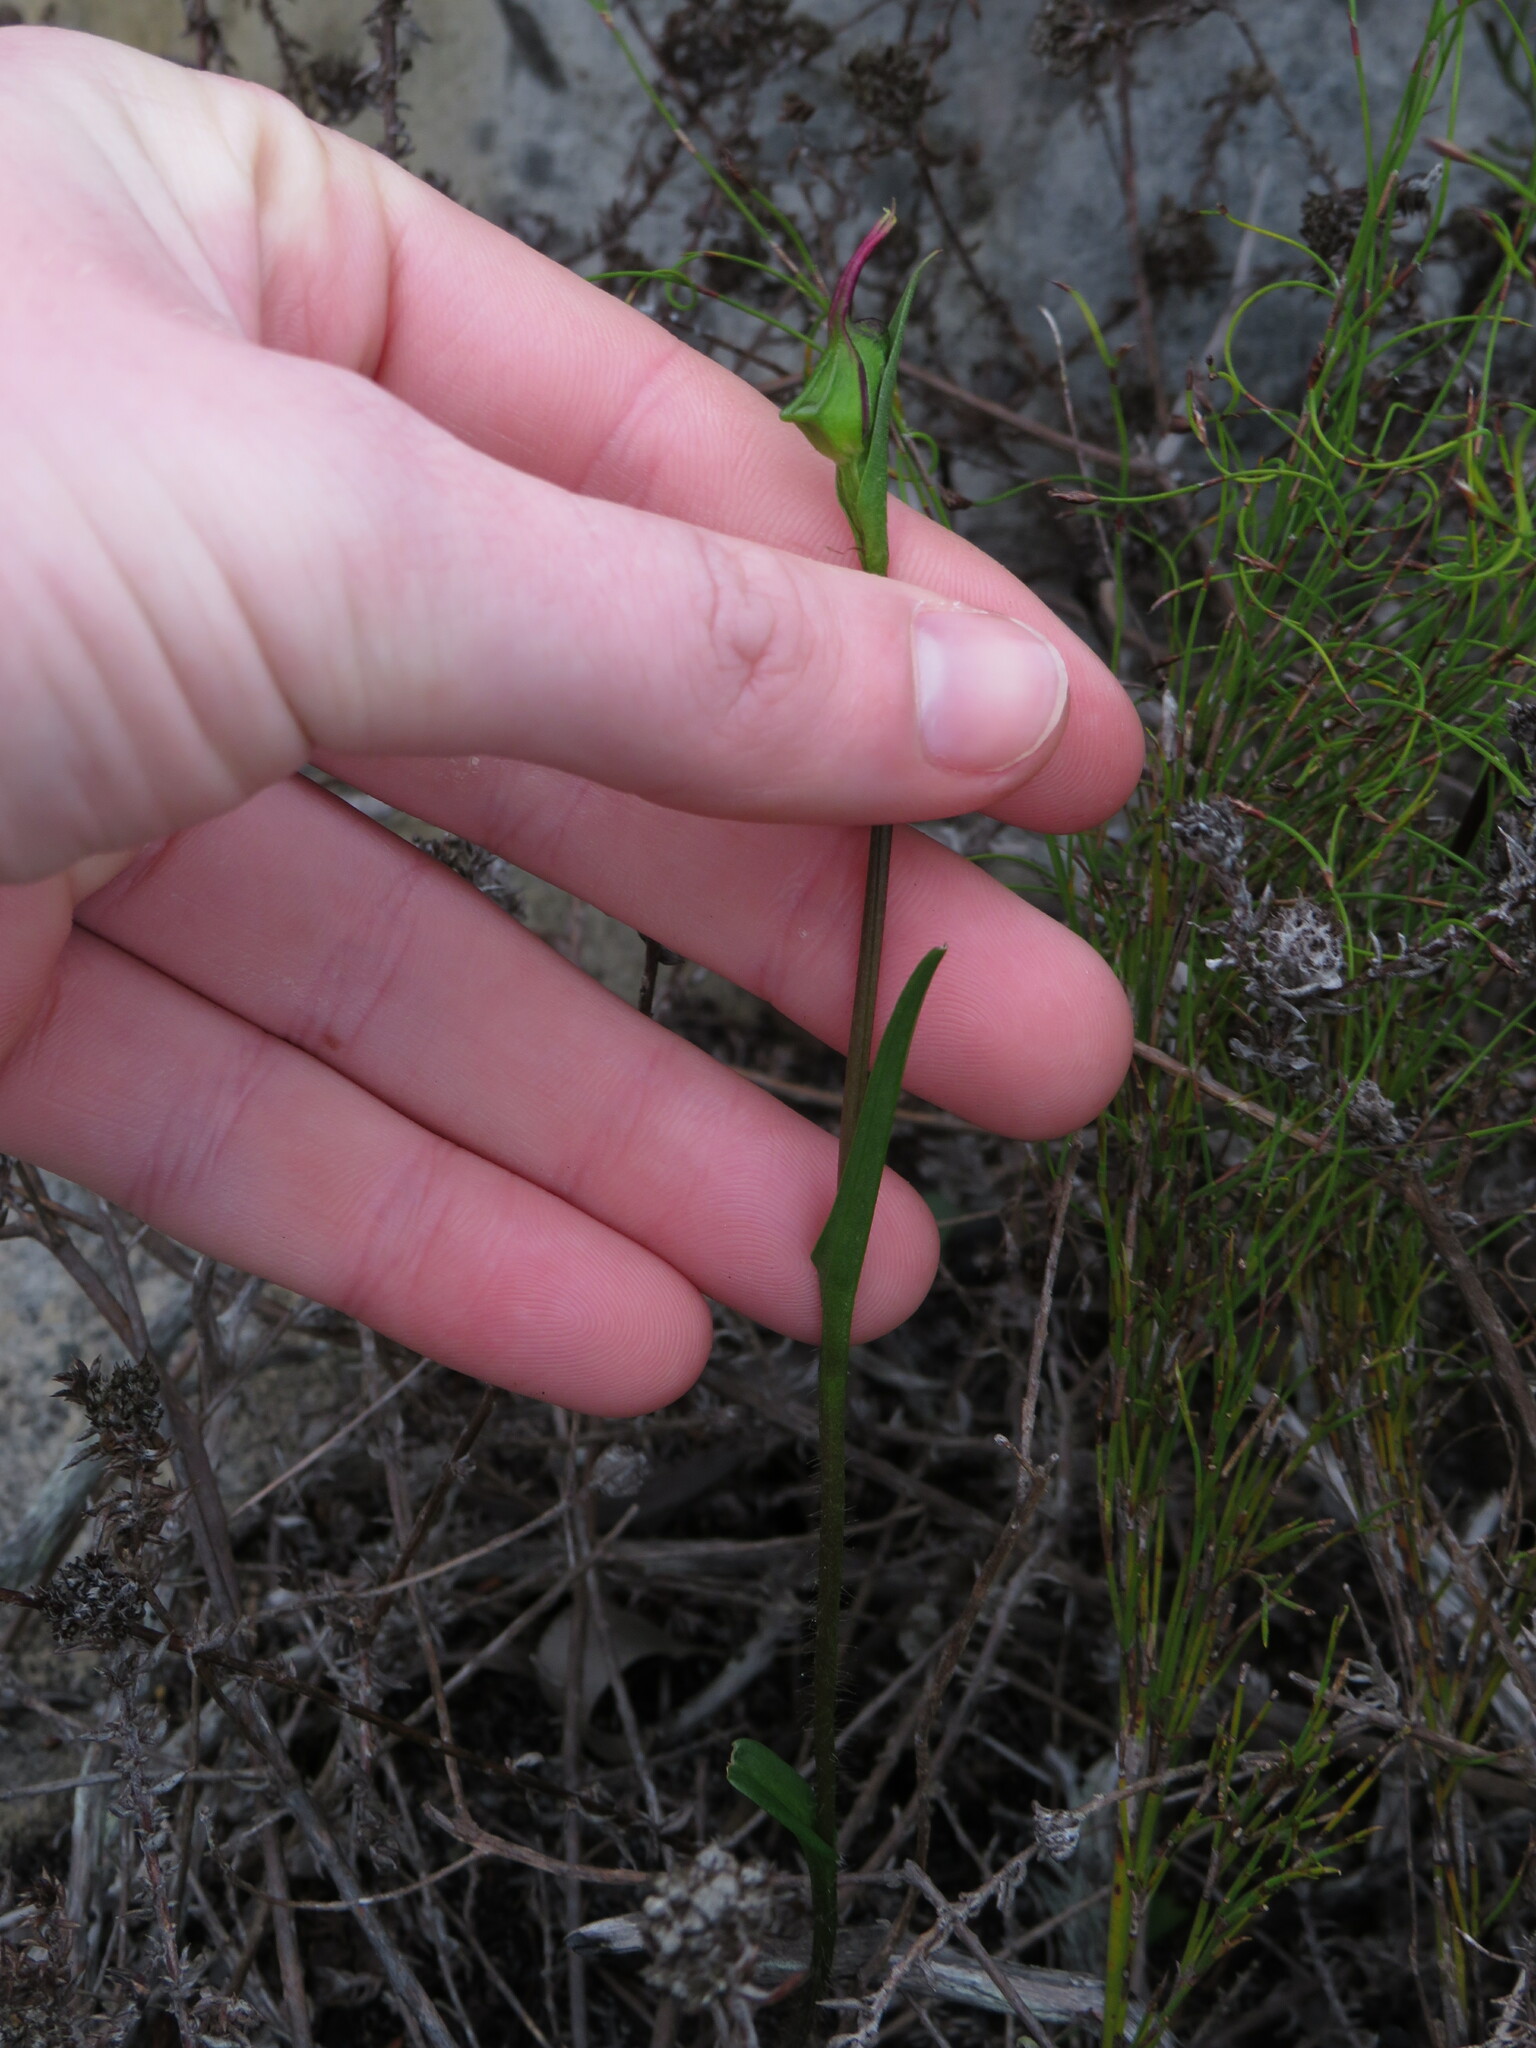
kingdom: Plantae
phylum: Tracheophyta
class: Liliopsida
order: Asparagales
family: Orchidaceae
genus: Disperis
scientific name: Disperis capensis
